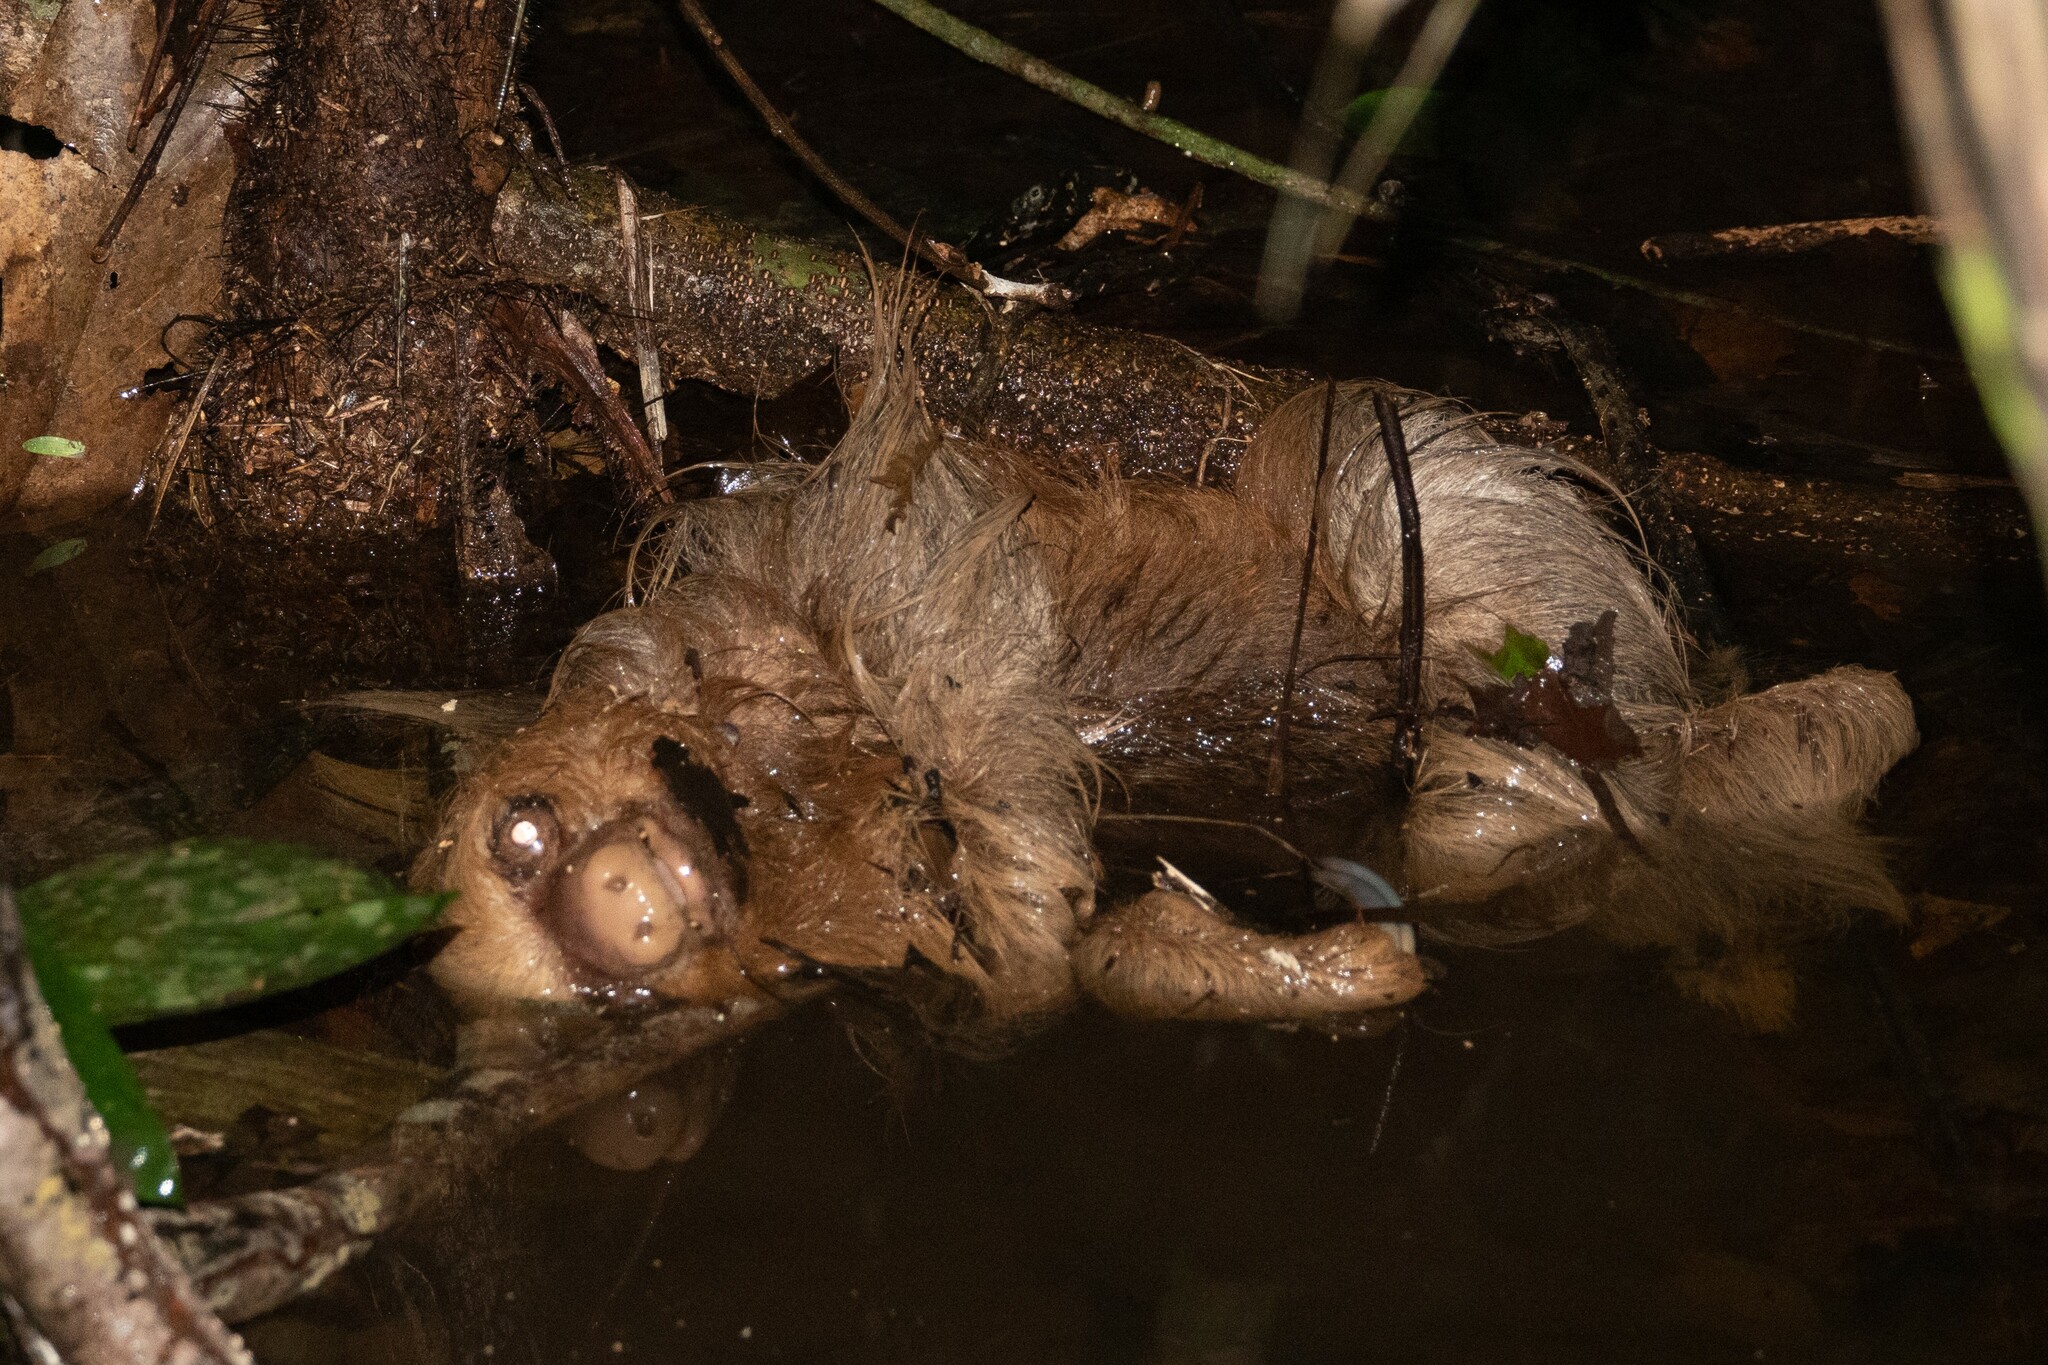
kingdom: Animalia
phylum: Chordata
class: Mammalia
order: Pilosa
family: Megalonychidae
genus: Choloepus
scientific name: Choloepus hoffmanni
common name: Hoffmann's two-toed sloth
